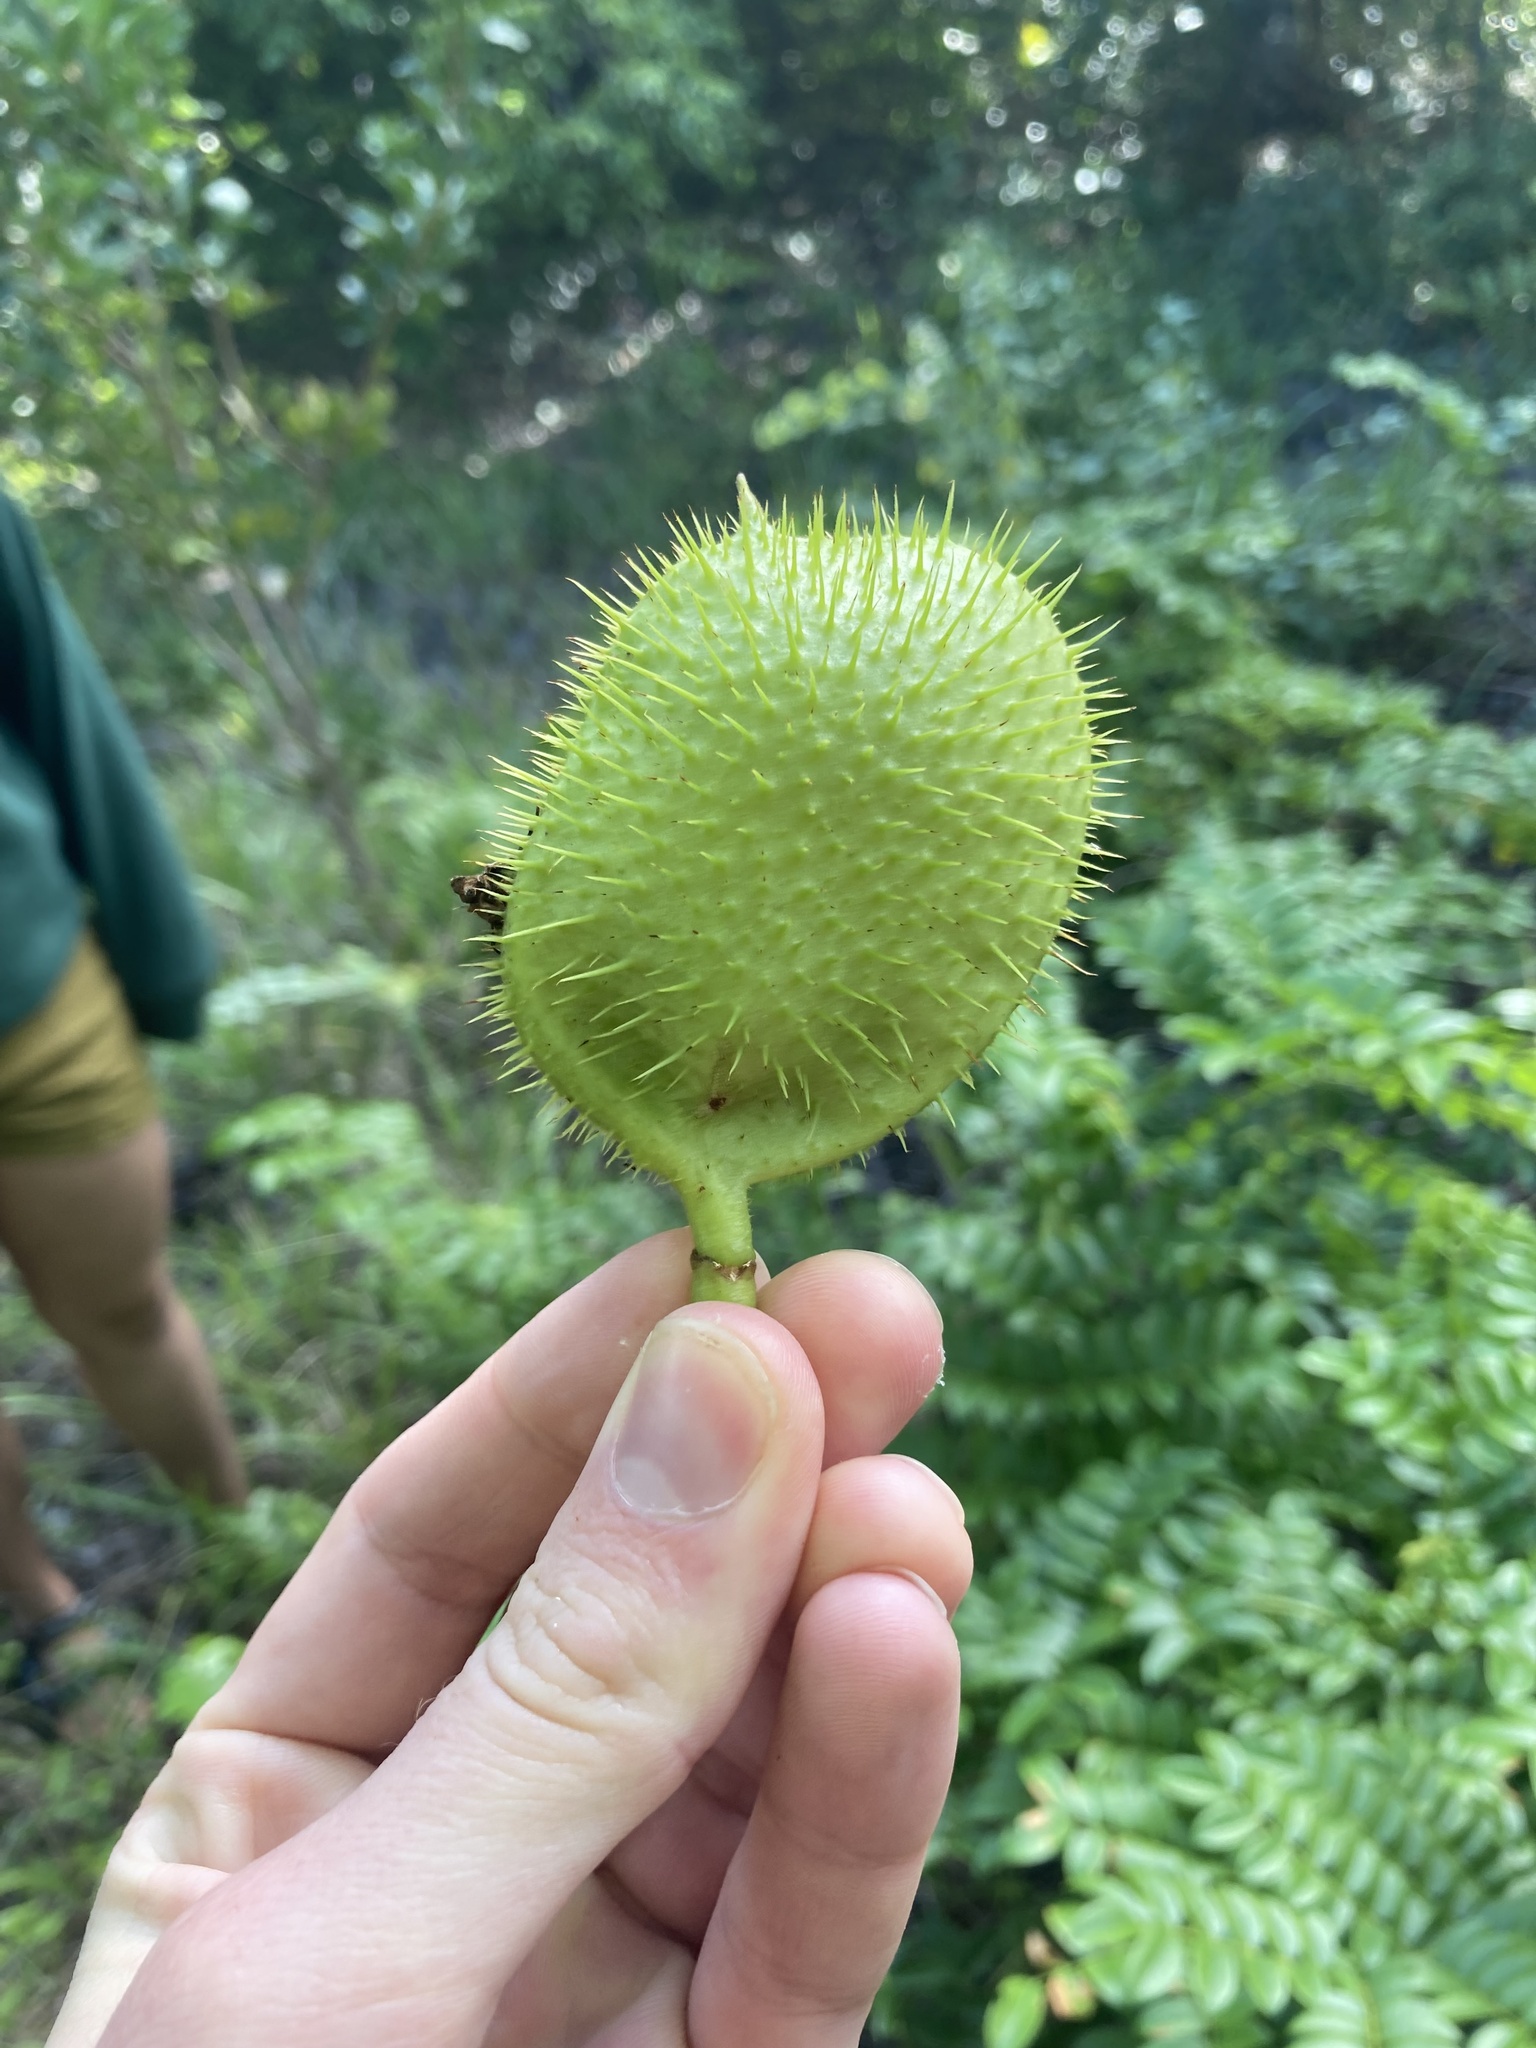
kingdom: Plantae
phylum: Tracheophyta
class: Magnoliopsida
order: Fabales
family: Fabaceae
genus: Guilandina
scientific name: Guilandina bonduc
